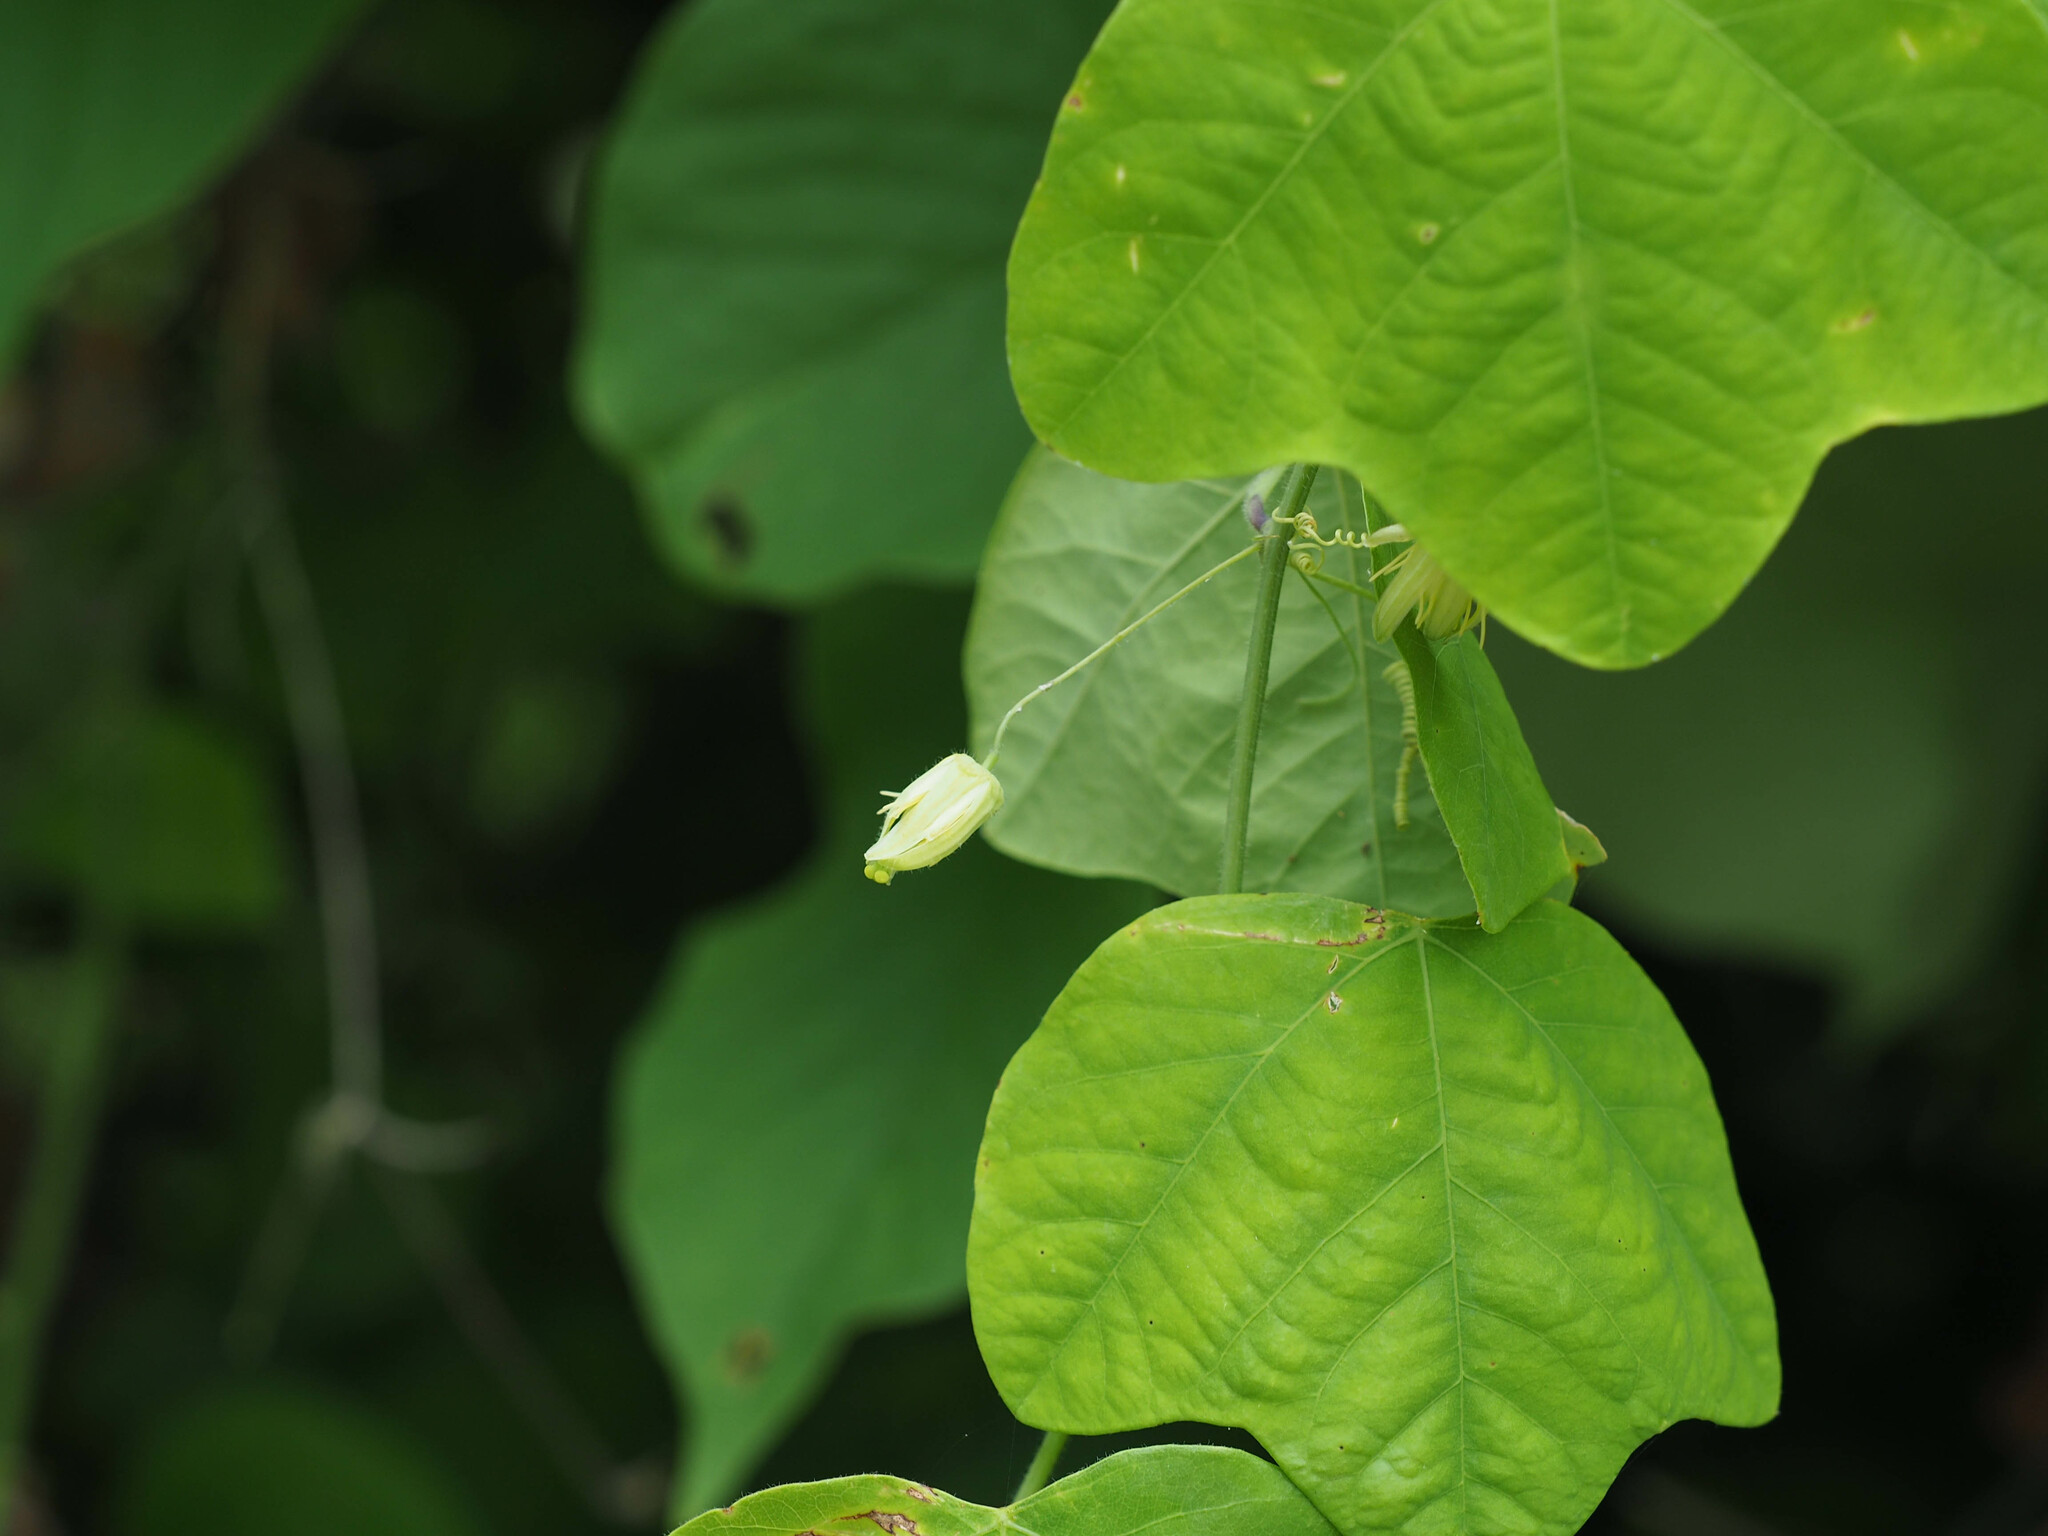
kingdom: Plantae
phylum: Tracheophyta
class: Magnoliopsida
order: Malpighiales
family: Passifloraceae
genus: Passiflora
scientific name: Passiflora lutea
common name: Yellow passionflower
